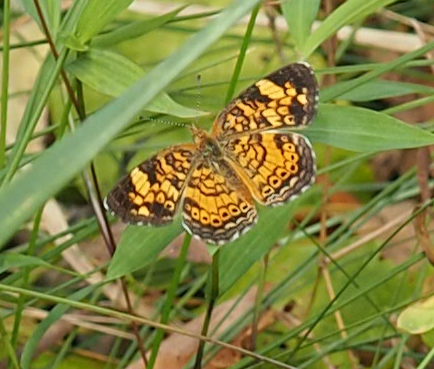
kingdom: Animalia
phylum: Arthropoda
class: Insecta
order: Lepidoptera
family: Nymphalidae
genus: Phyciodes
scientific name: Phyciodes tharos
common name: Pearl crescent
